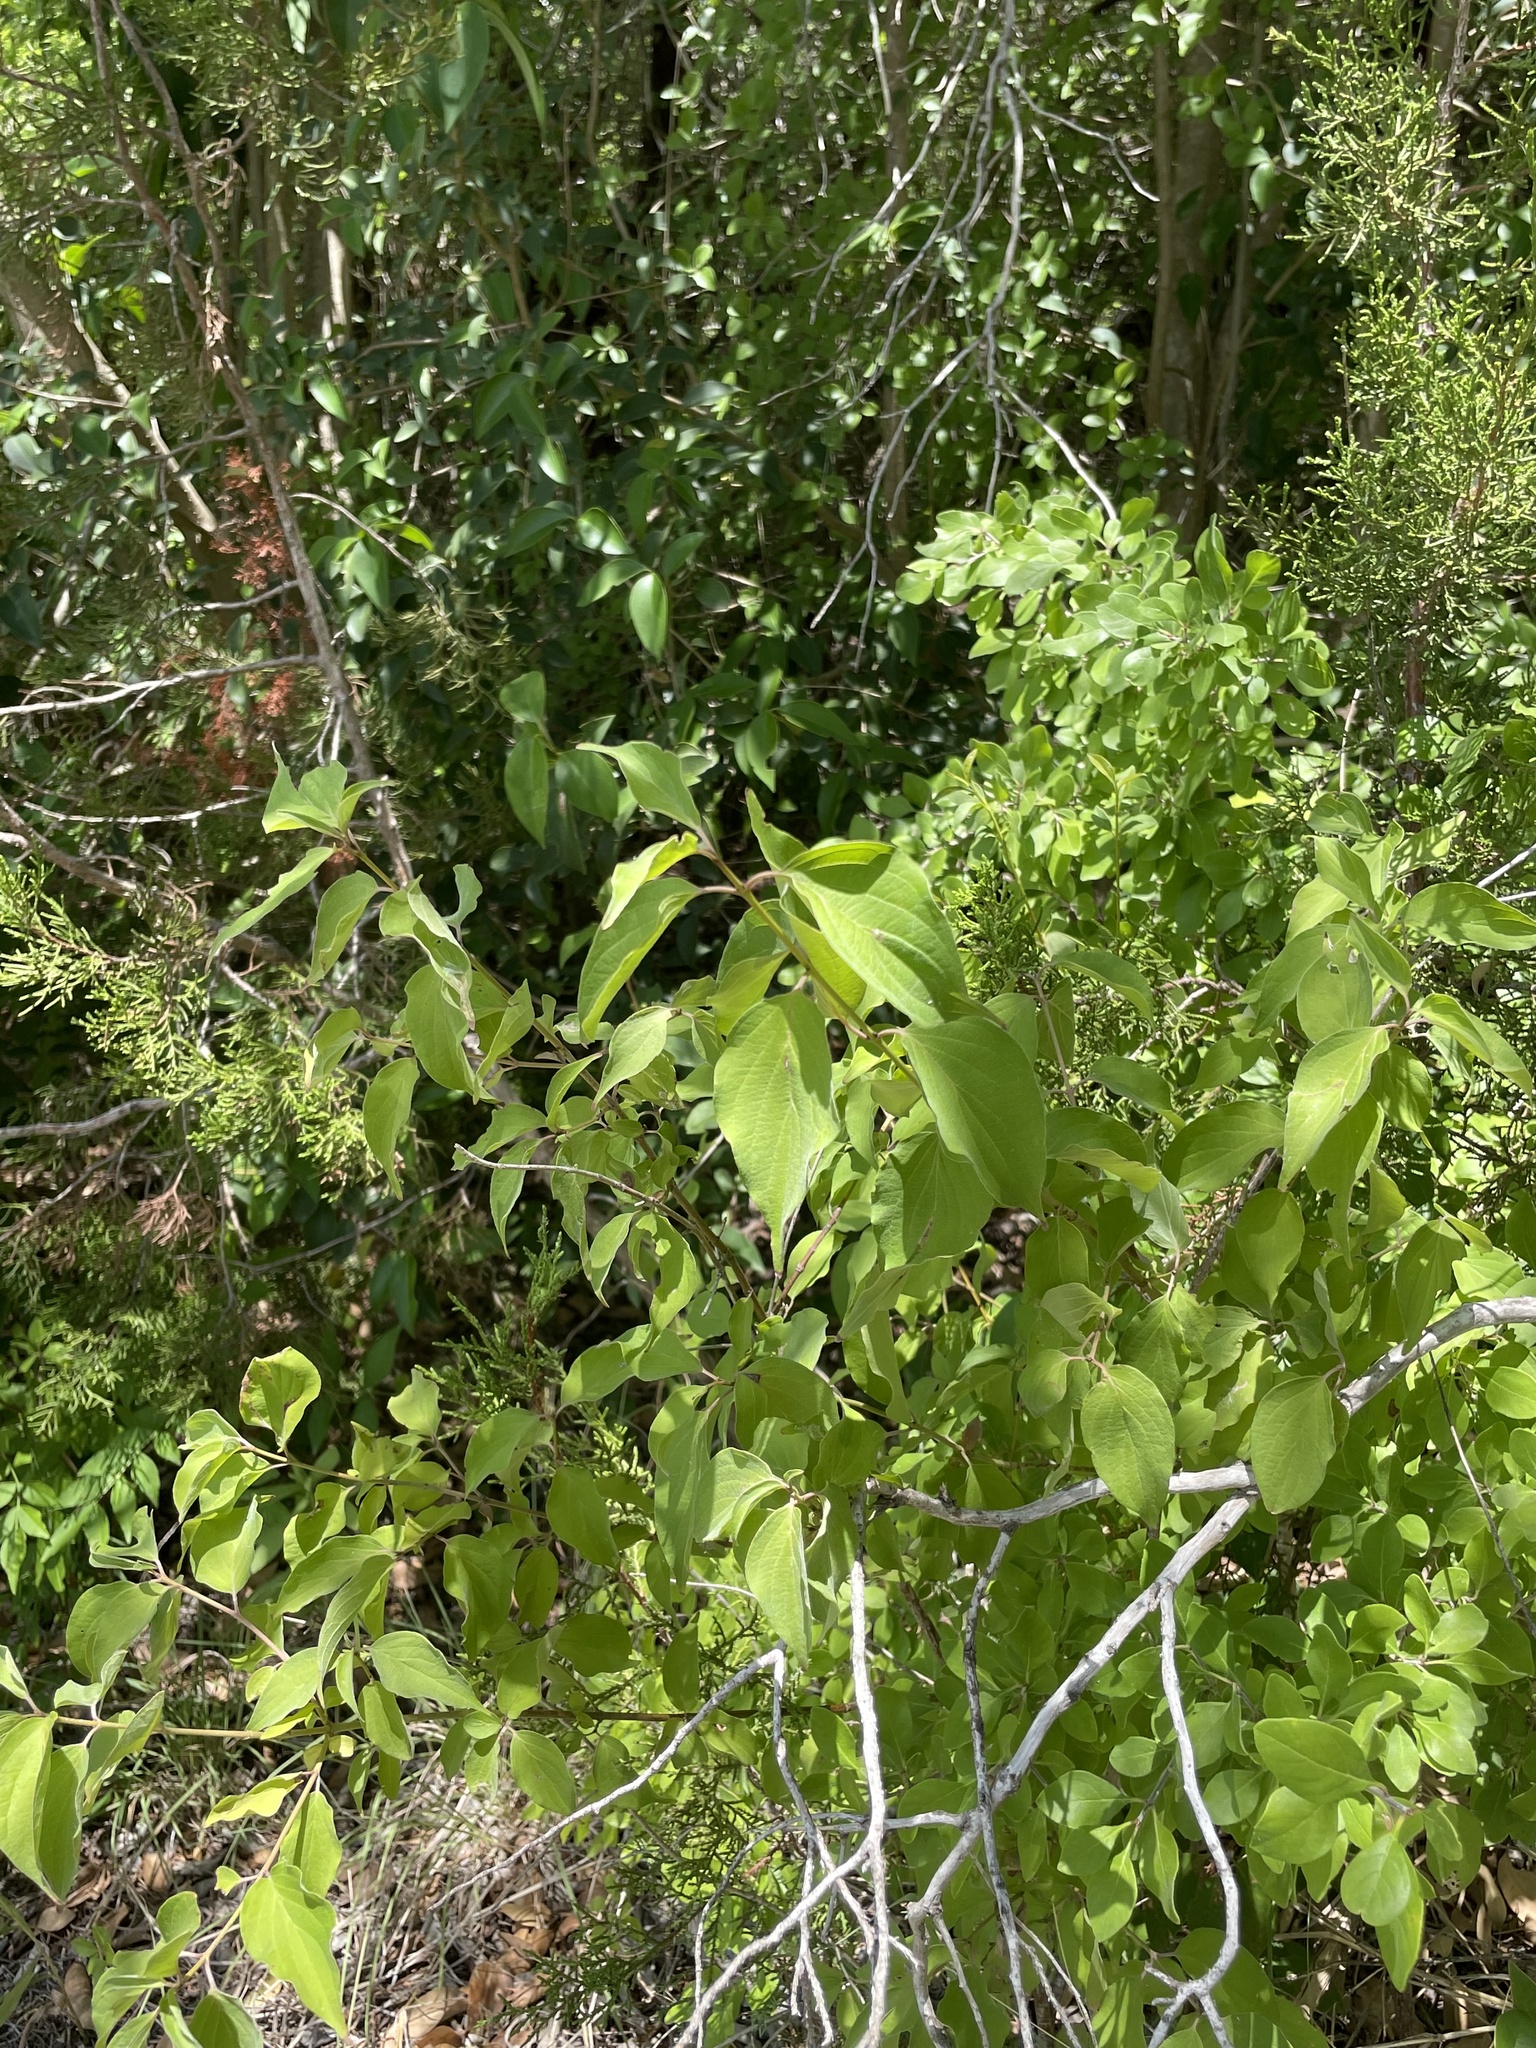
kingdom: Plantae
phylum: Tracheophyta
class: Magnoliopsida
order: Cornales
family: Cornaceae
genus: Cornus
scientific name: Cornus drummondii
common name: Rough-leaf dogwood
